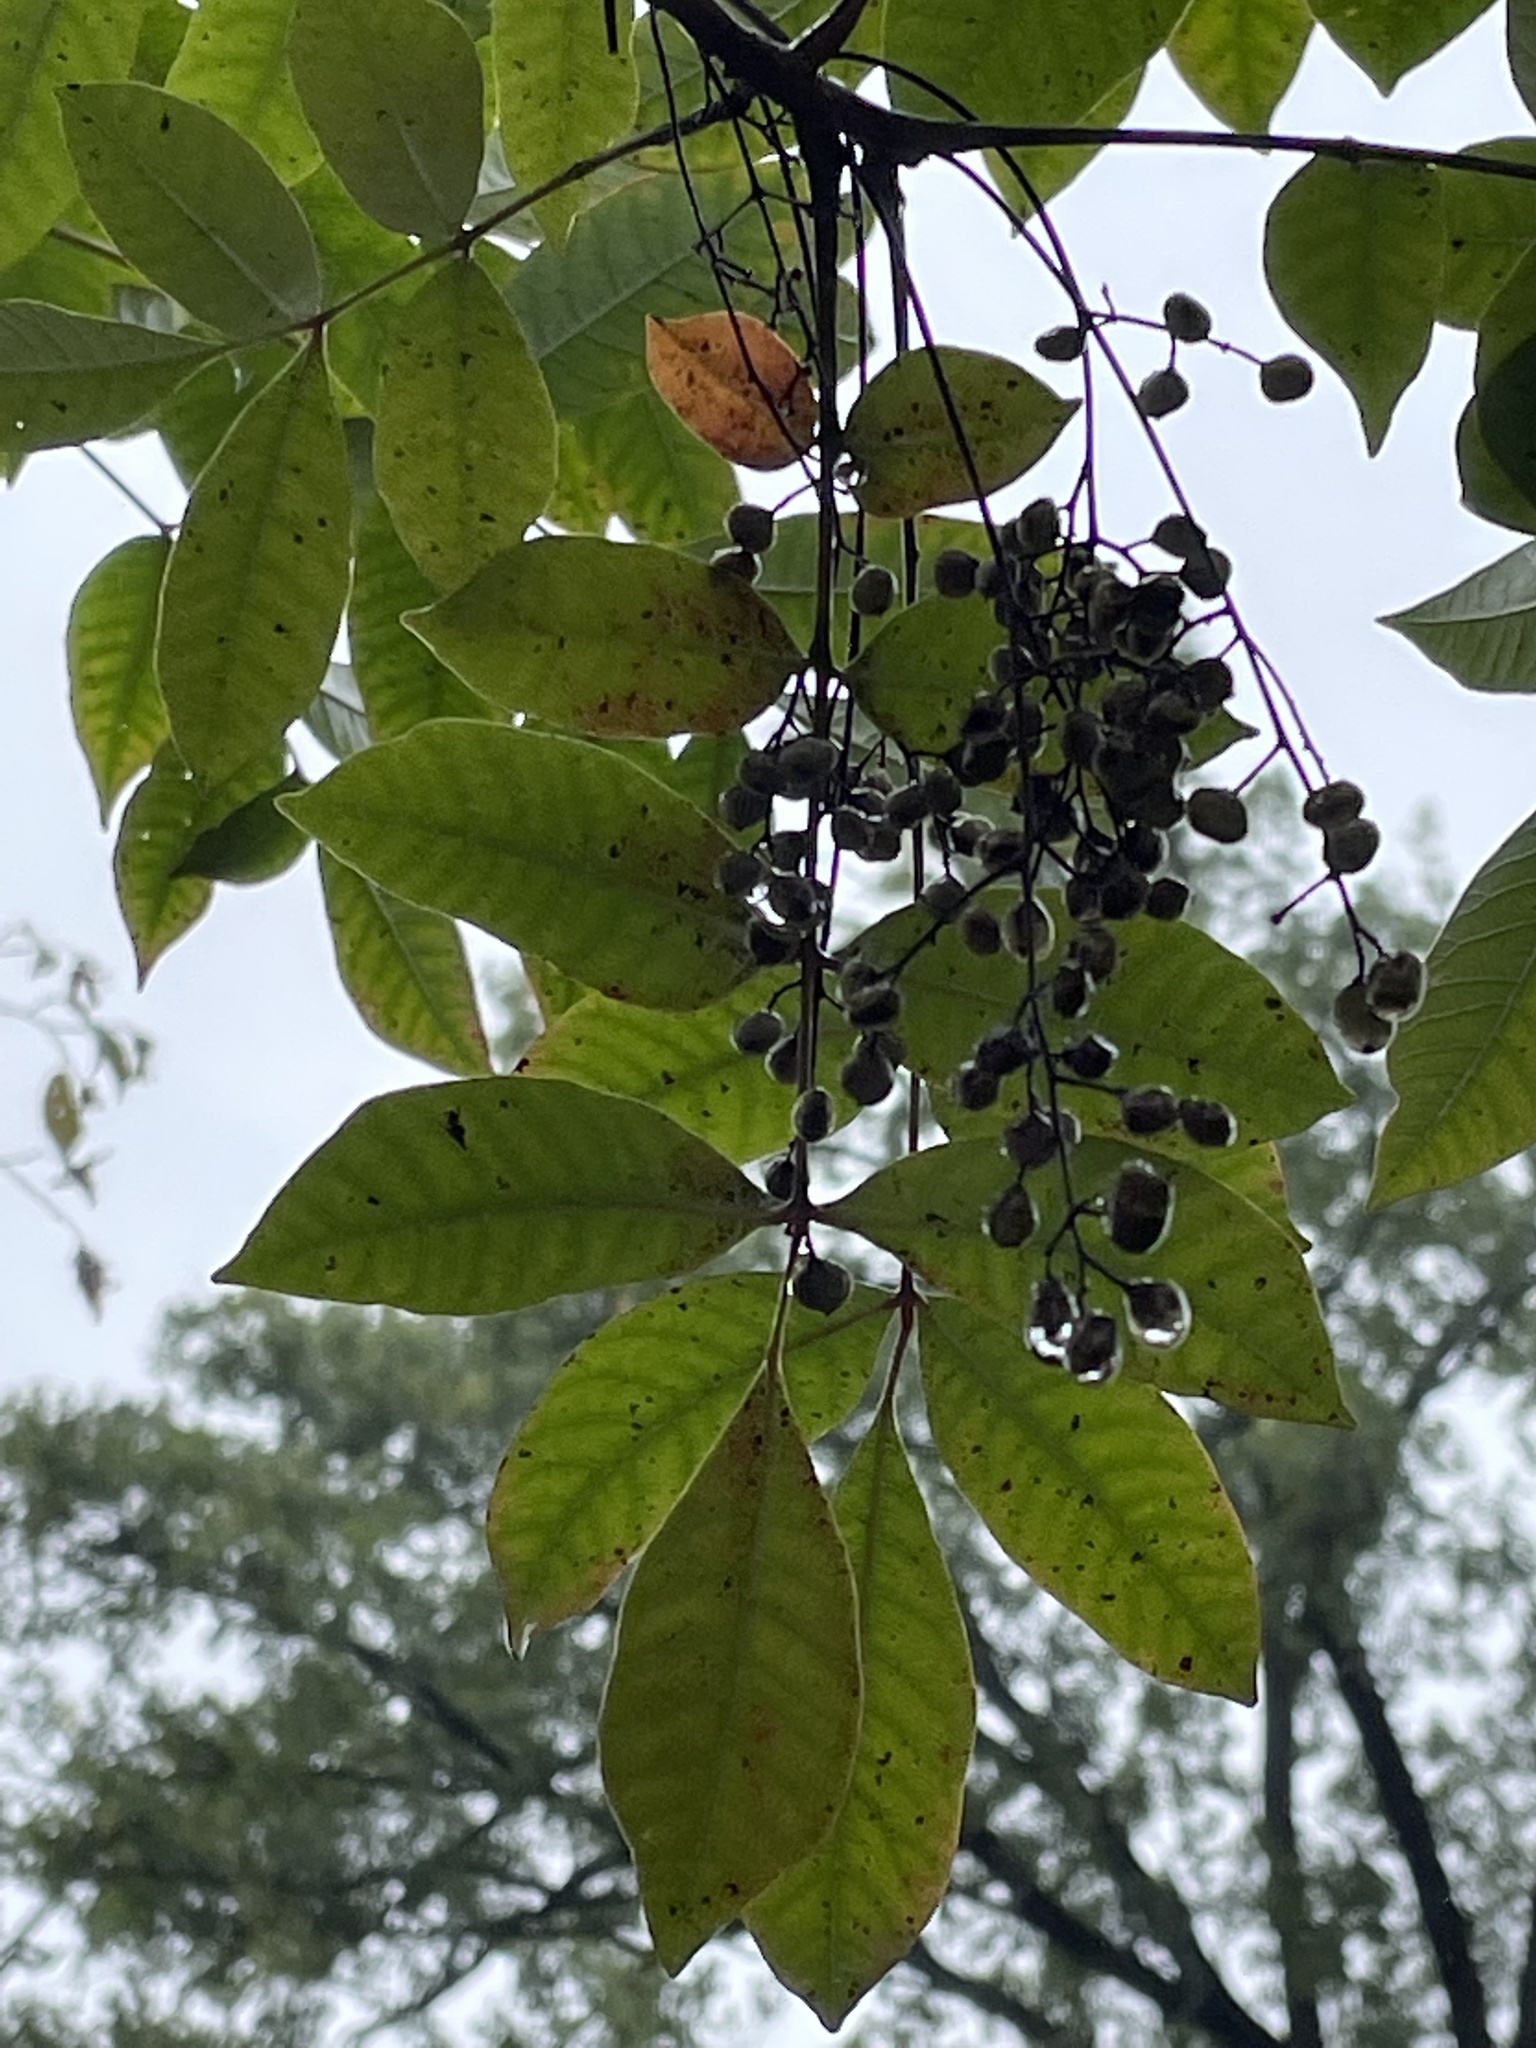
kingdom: Plantae
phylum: Tracheophyta
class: Magnoliopsida
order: Sapindales
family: Anacardiaceae
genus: Toxicodendron
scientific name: Toxicodendron vernix
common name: Poison sumac
